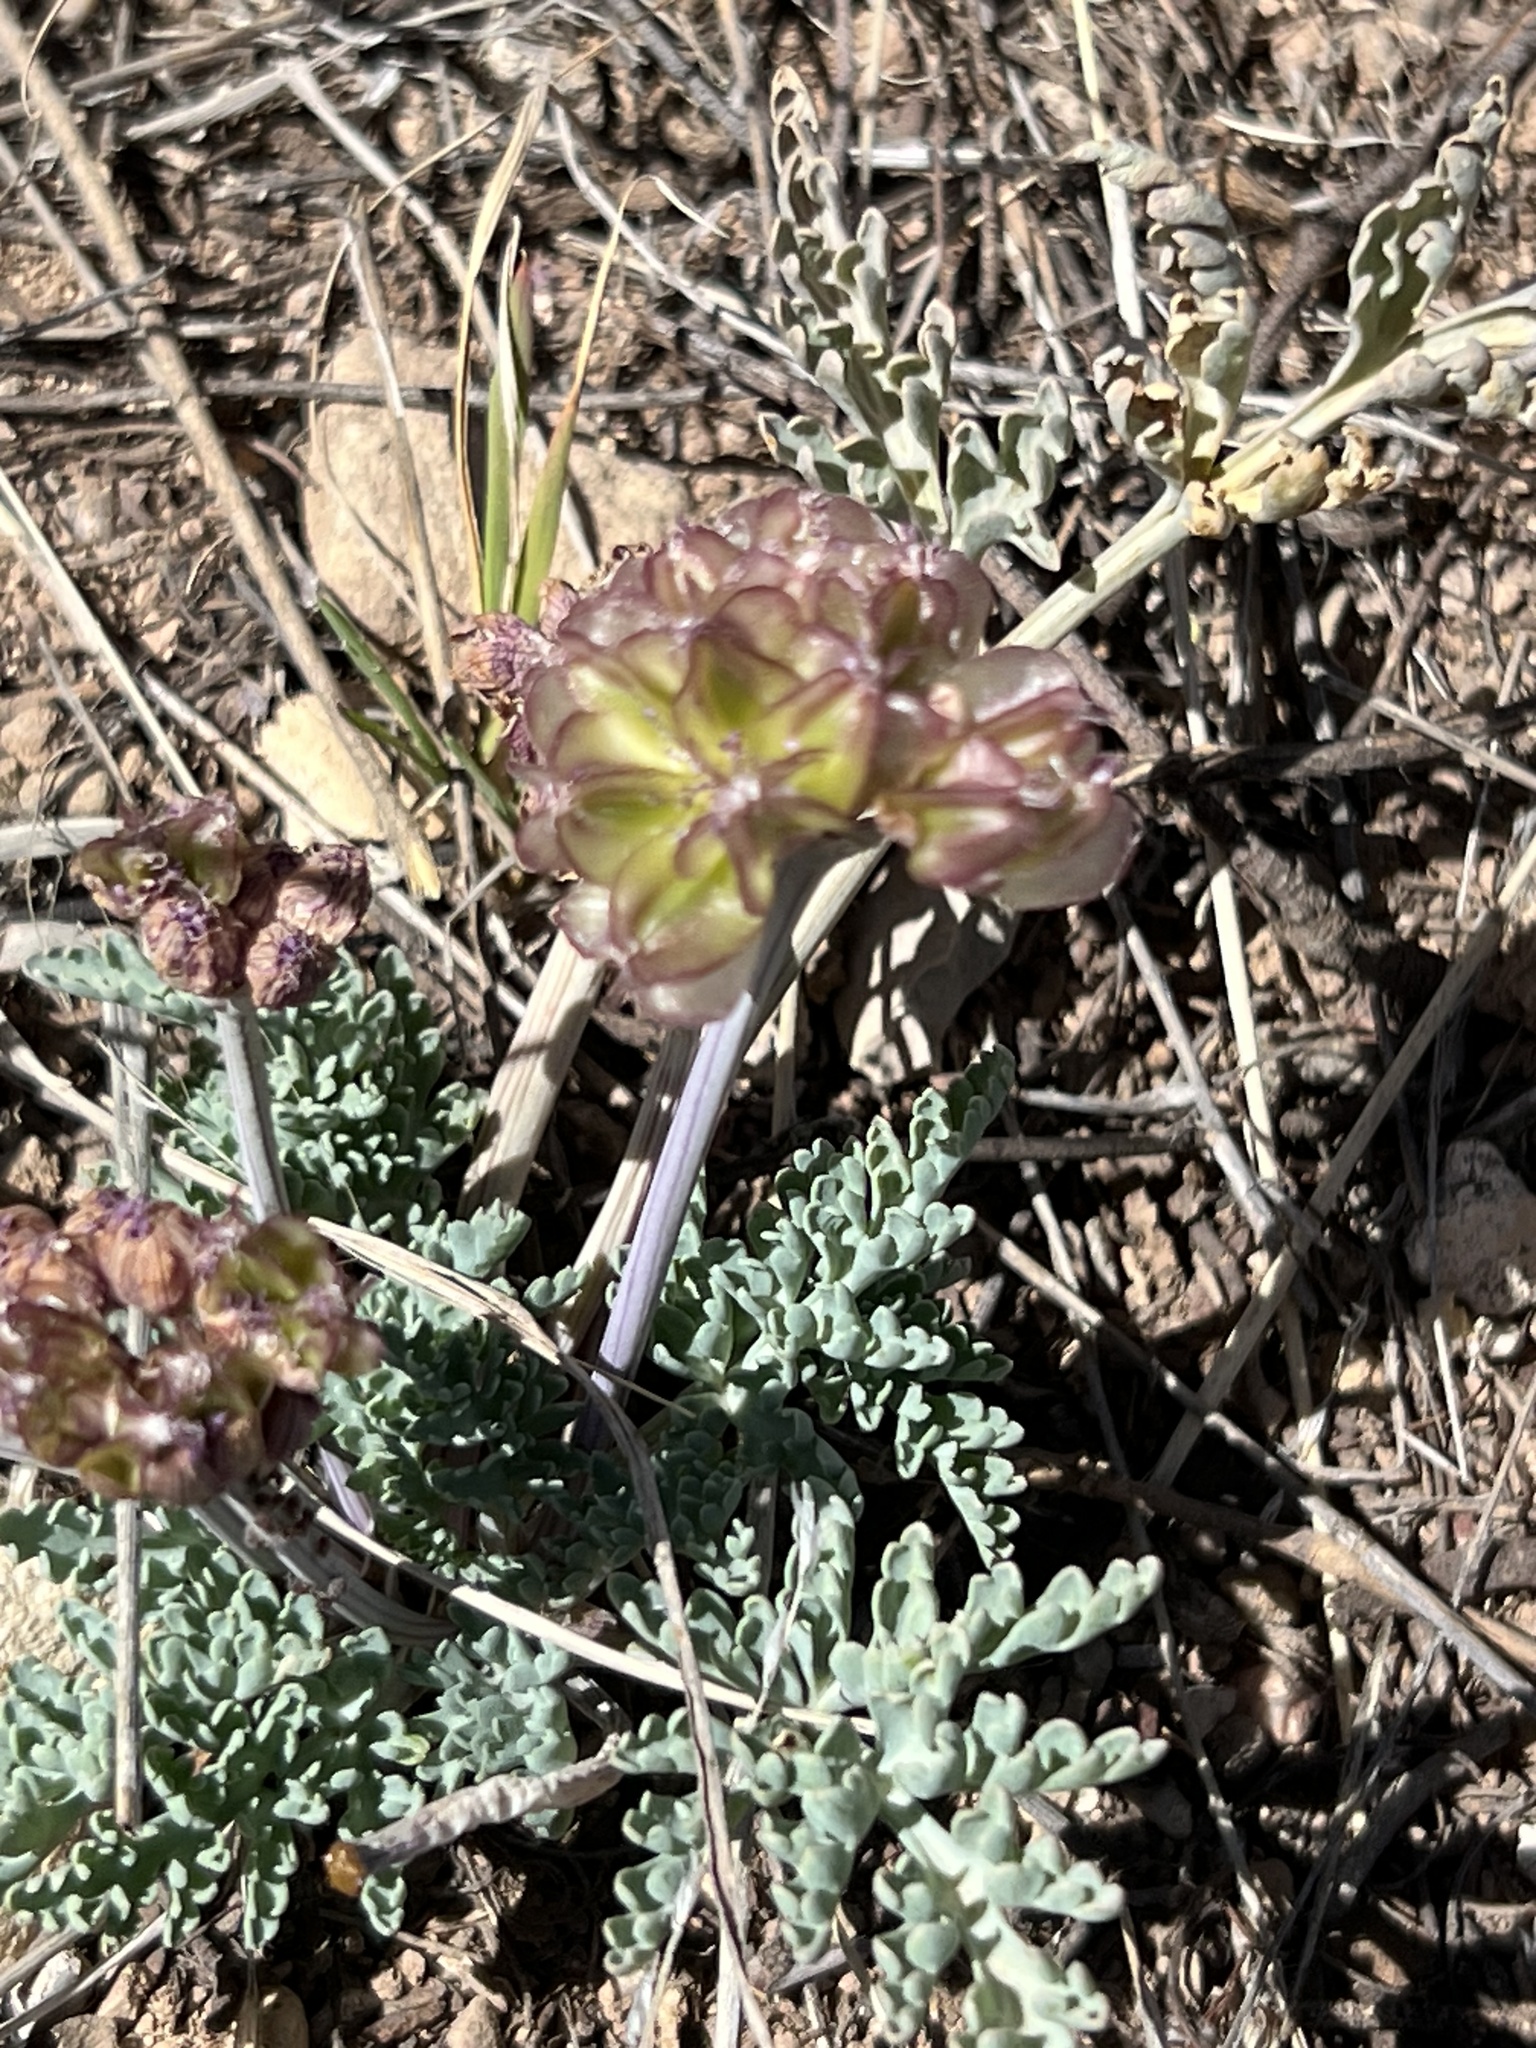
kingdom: Plantae
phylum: Tracheophyta
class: Magnoliopsida
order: Apiales
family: Apiaceae
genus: Vesper
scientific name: Vesper multinervatus
